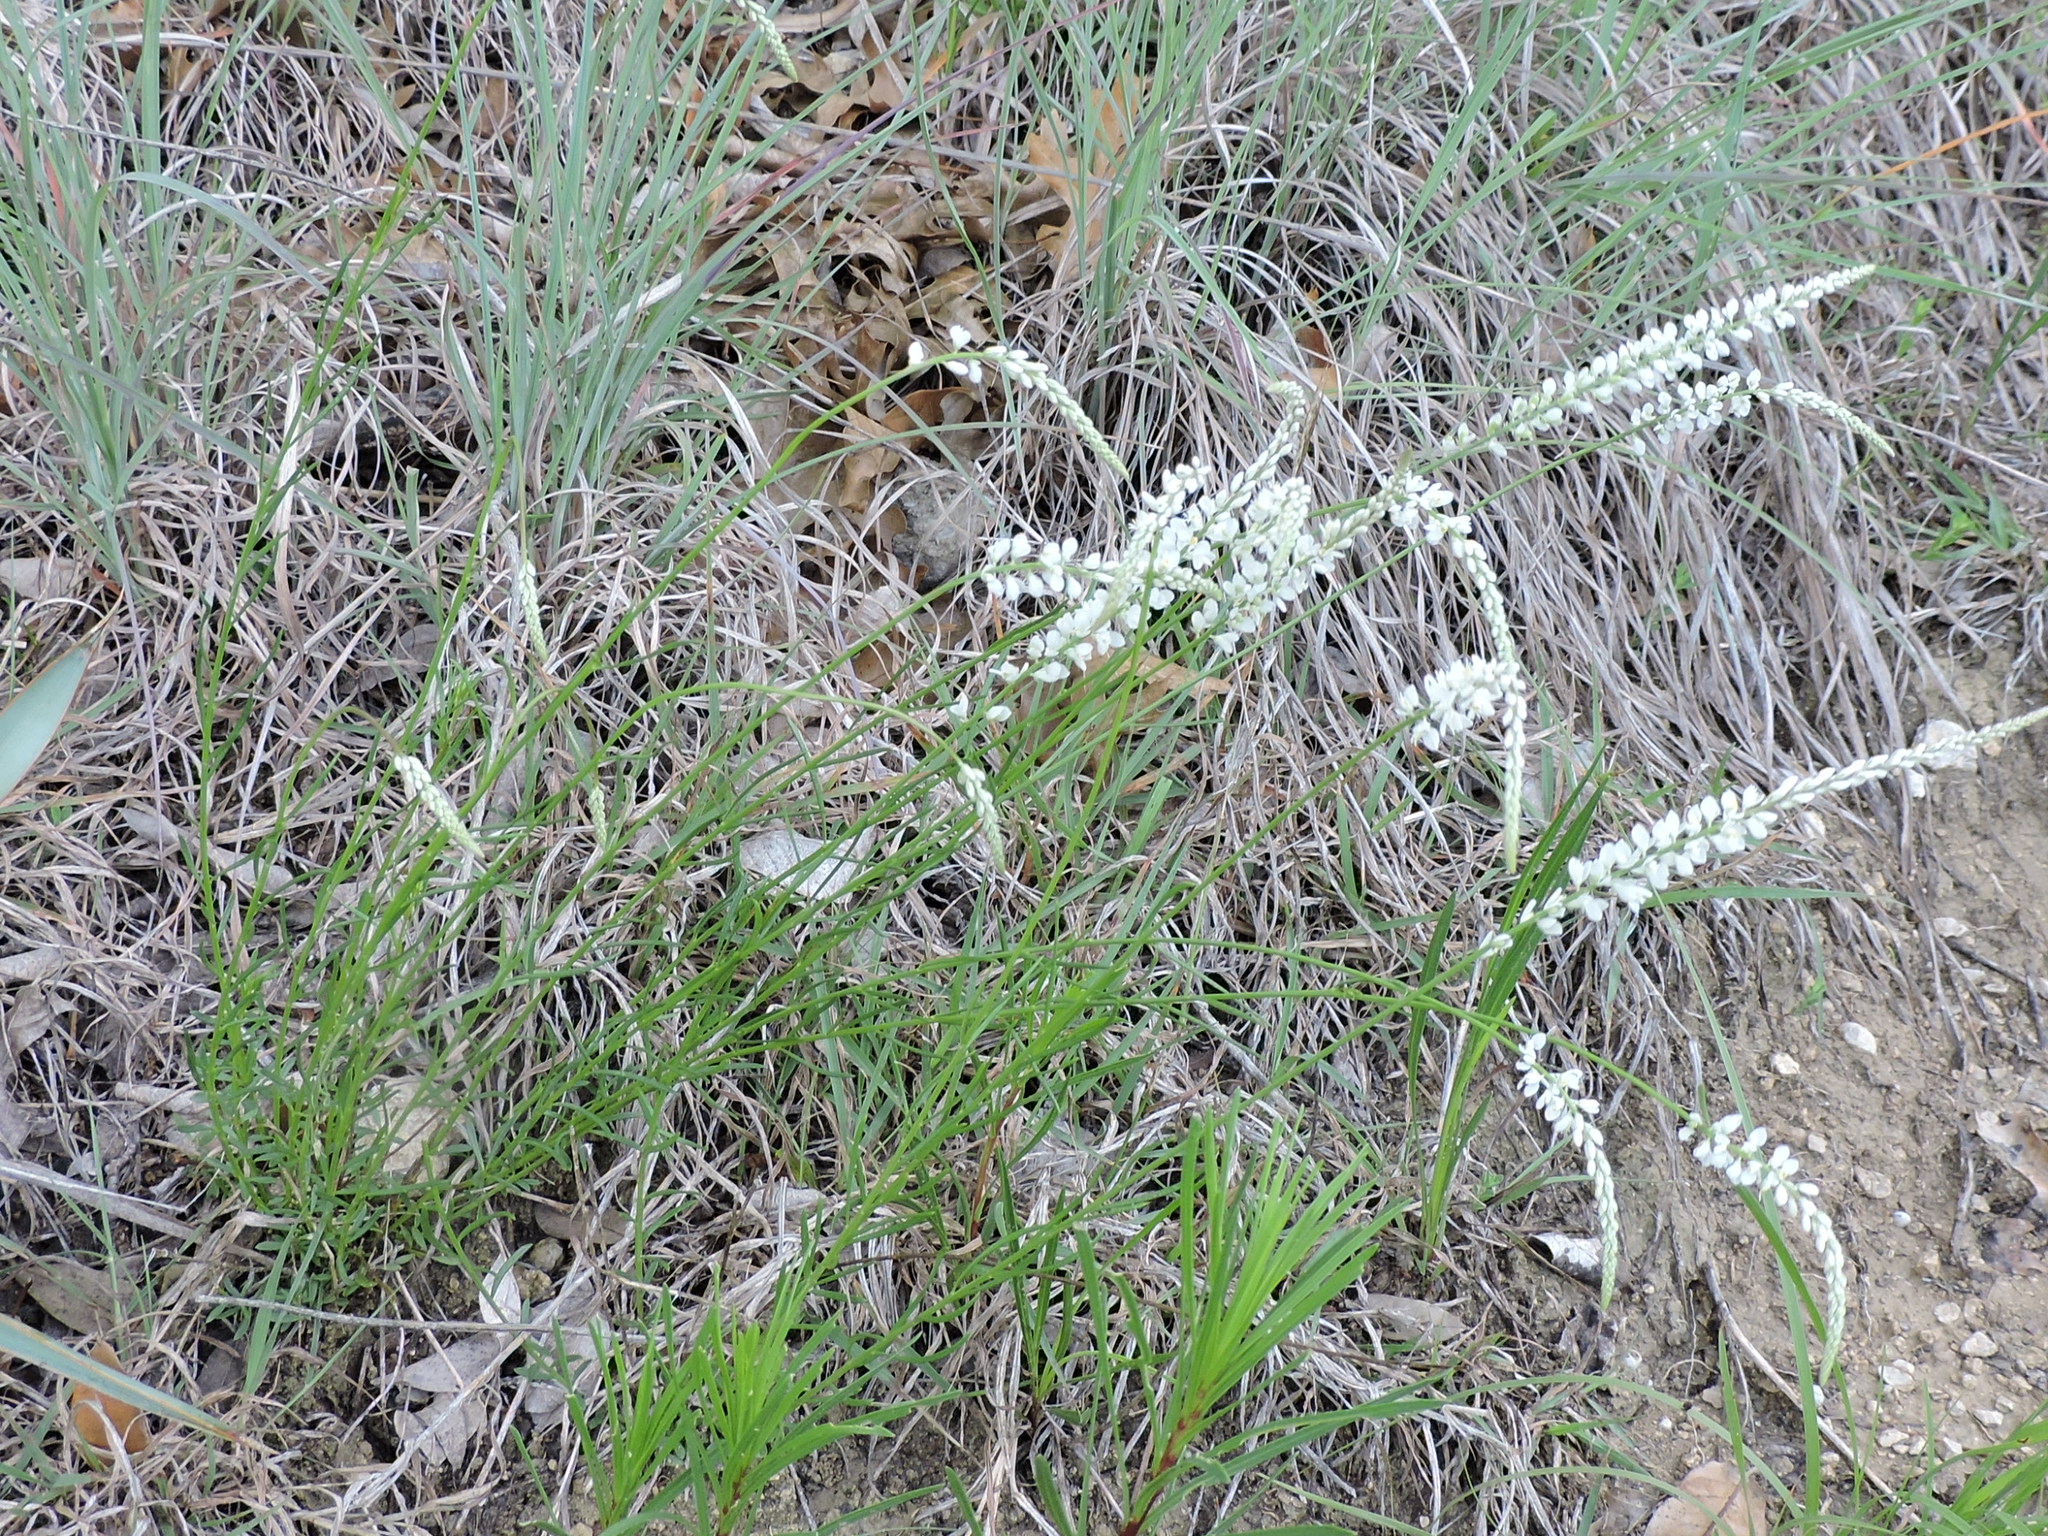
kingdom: Plantae
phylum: Tracheophyta
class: Magnoliopsida
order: Fabales
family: Polygalaceae
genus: Polygala
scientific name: Polygala alba
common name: White milkwort
